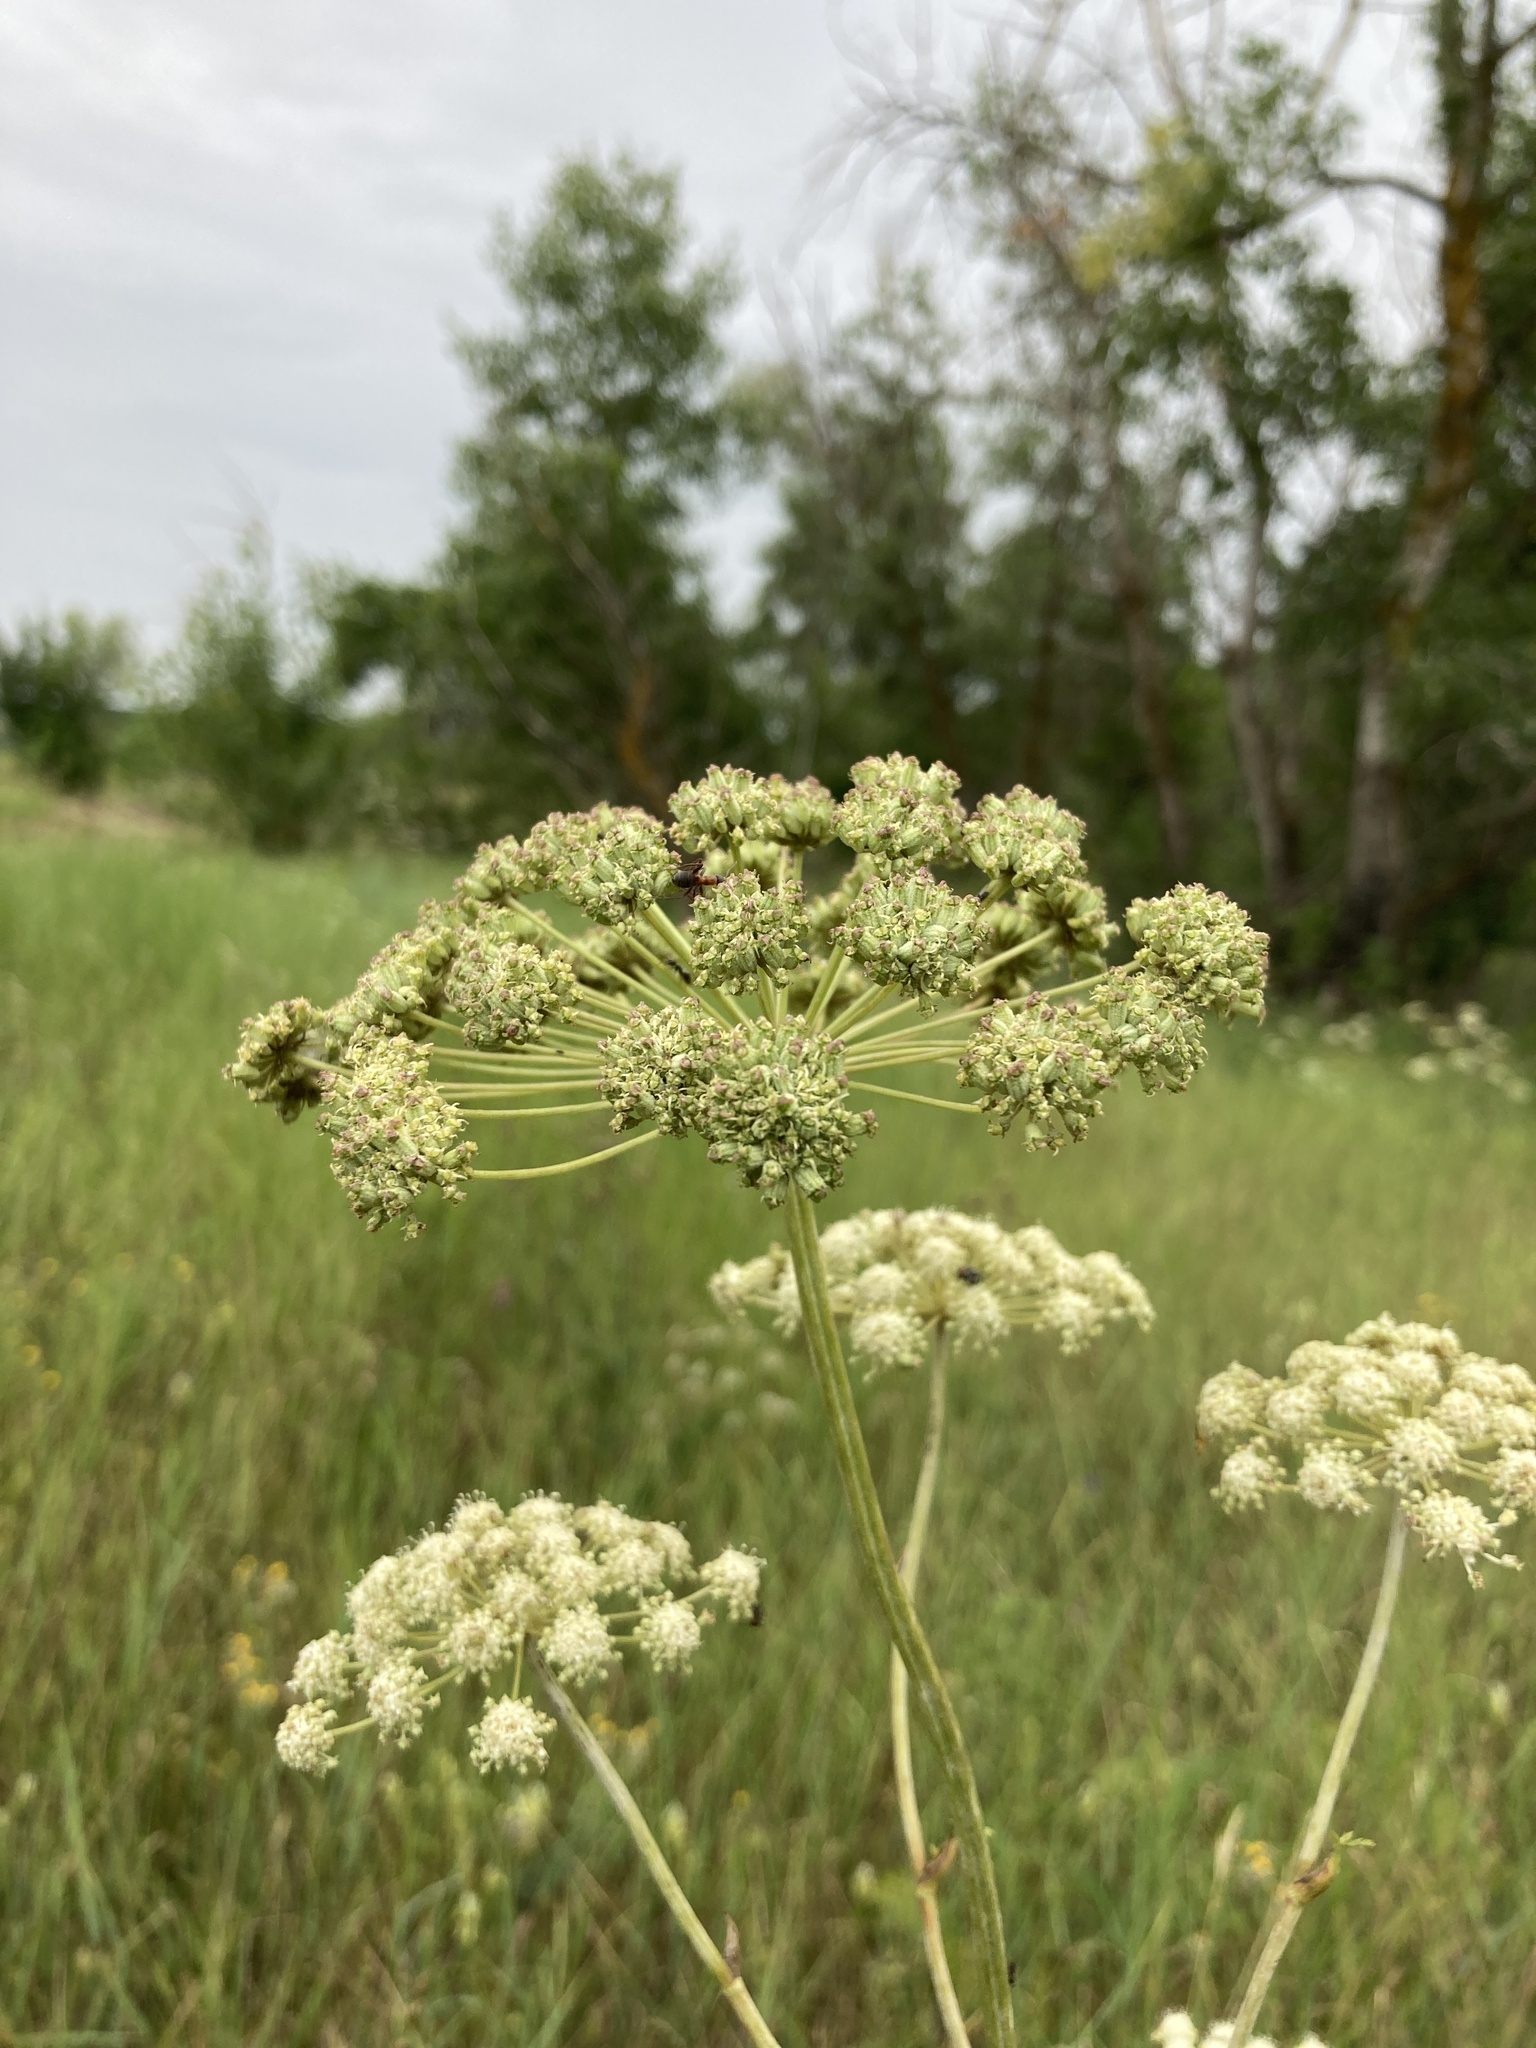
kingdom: Plantae
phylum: Tracheophyta
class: Magnoliopsida
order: Apiales
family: Apiaceae
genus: Seseli
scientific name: Seseli libanotis
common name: Mooncarrot
